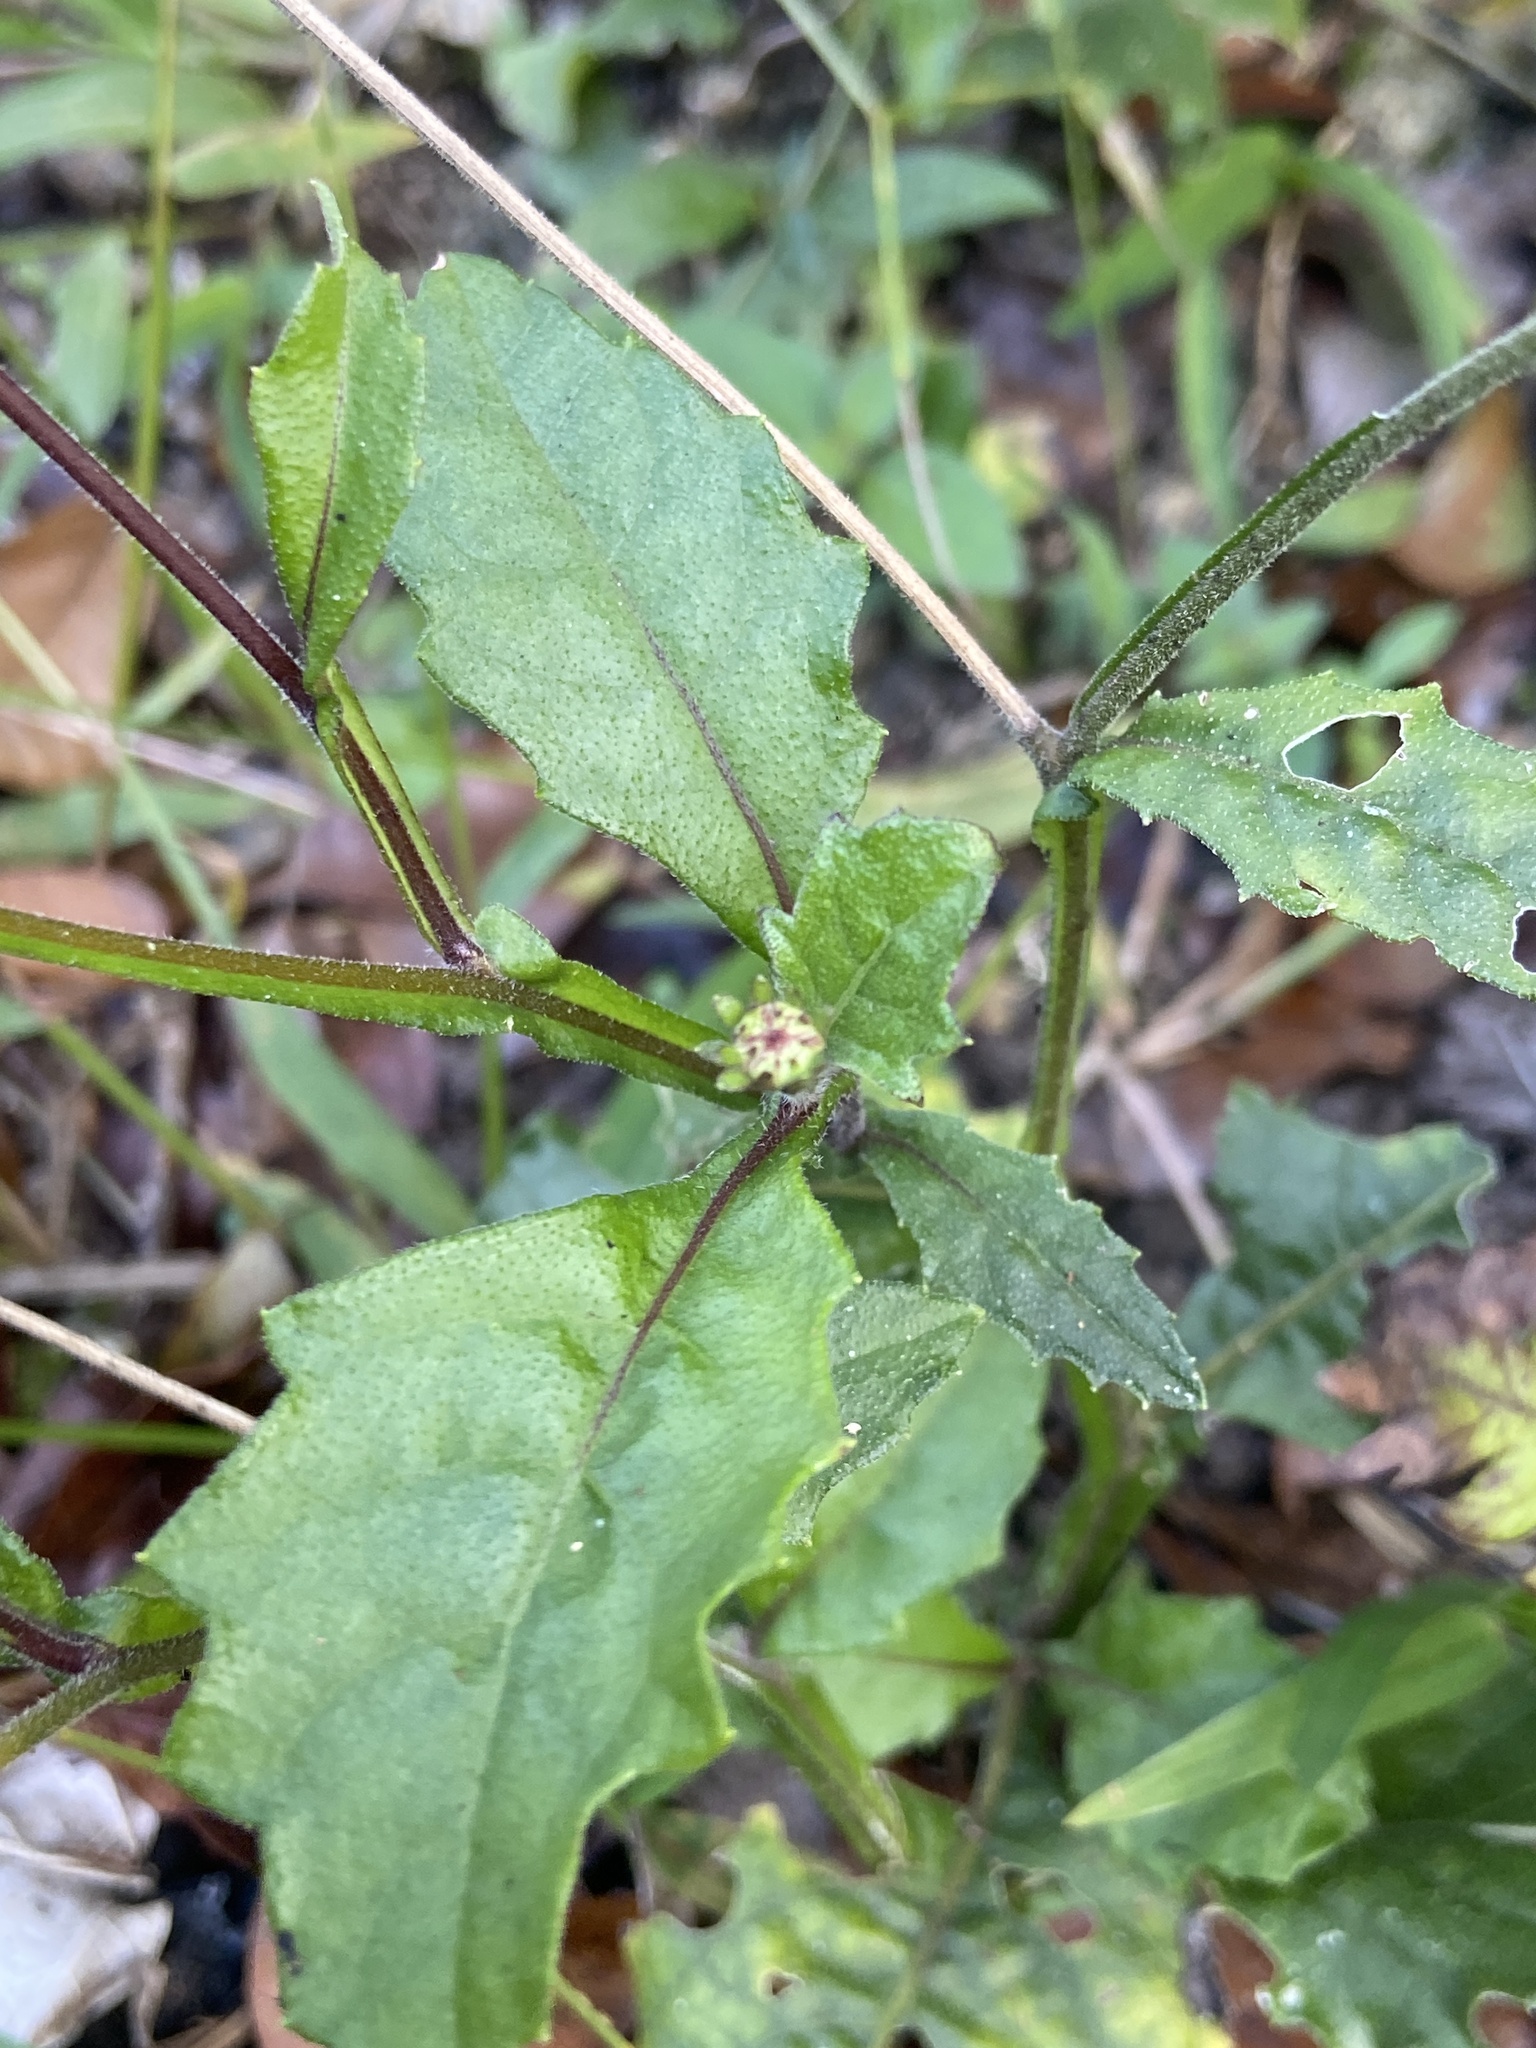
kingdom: Plantae
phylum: Tracheophyta
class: Magnoliopsida
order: Asterales
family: Asteraceae
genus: Verbesina
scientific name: Verbesina alata
